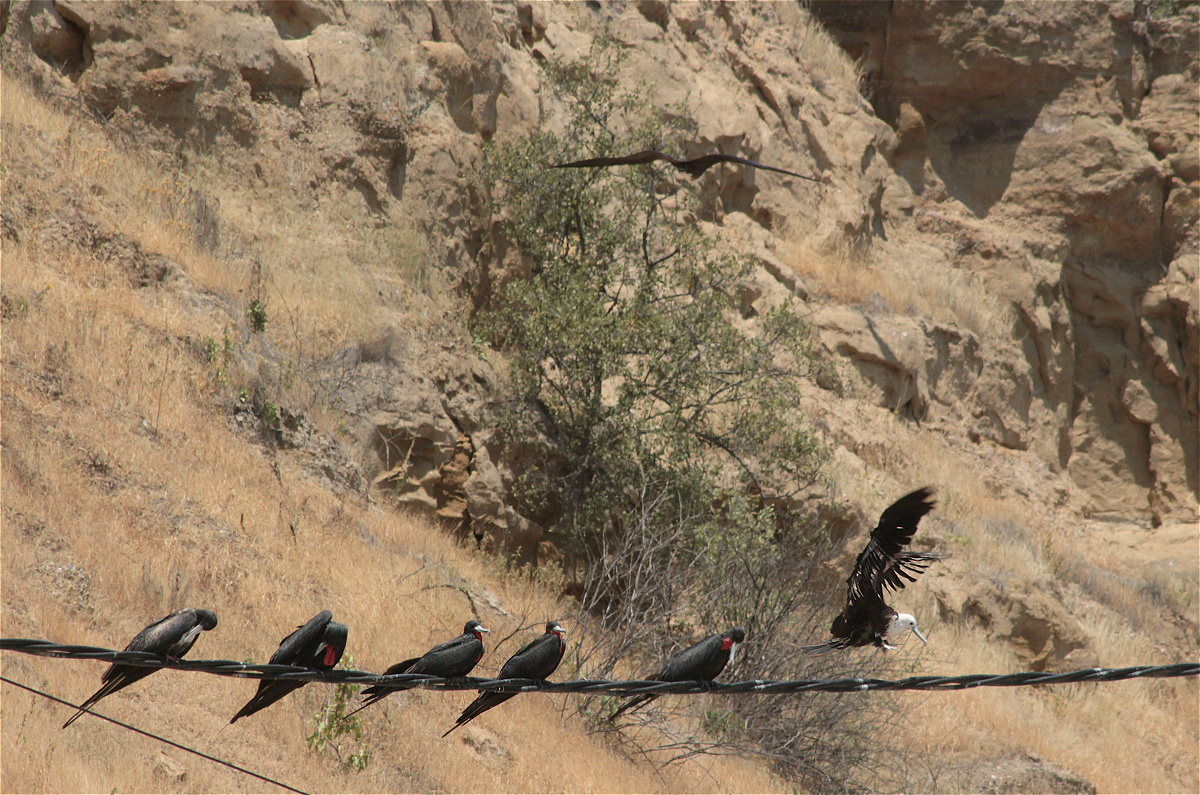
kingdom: Animalia
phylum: Chordata
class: Aves
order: Suliformes
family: Fregatidae
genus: Fregata
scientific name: Fregata magnificens
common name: Magnificent frigatebird
